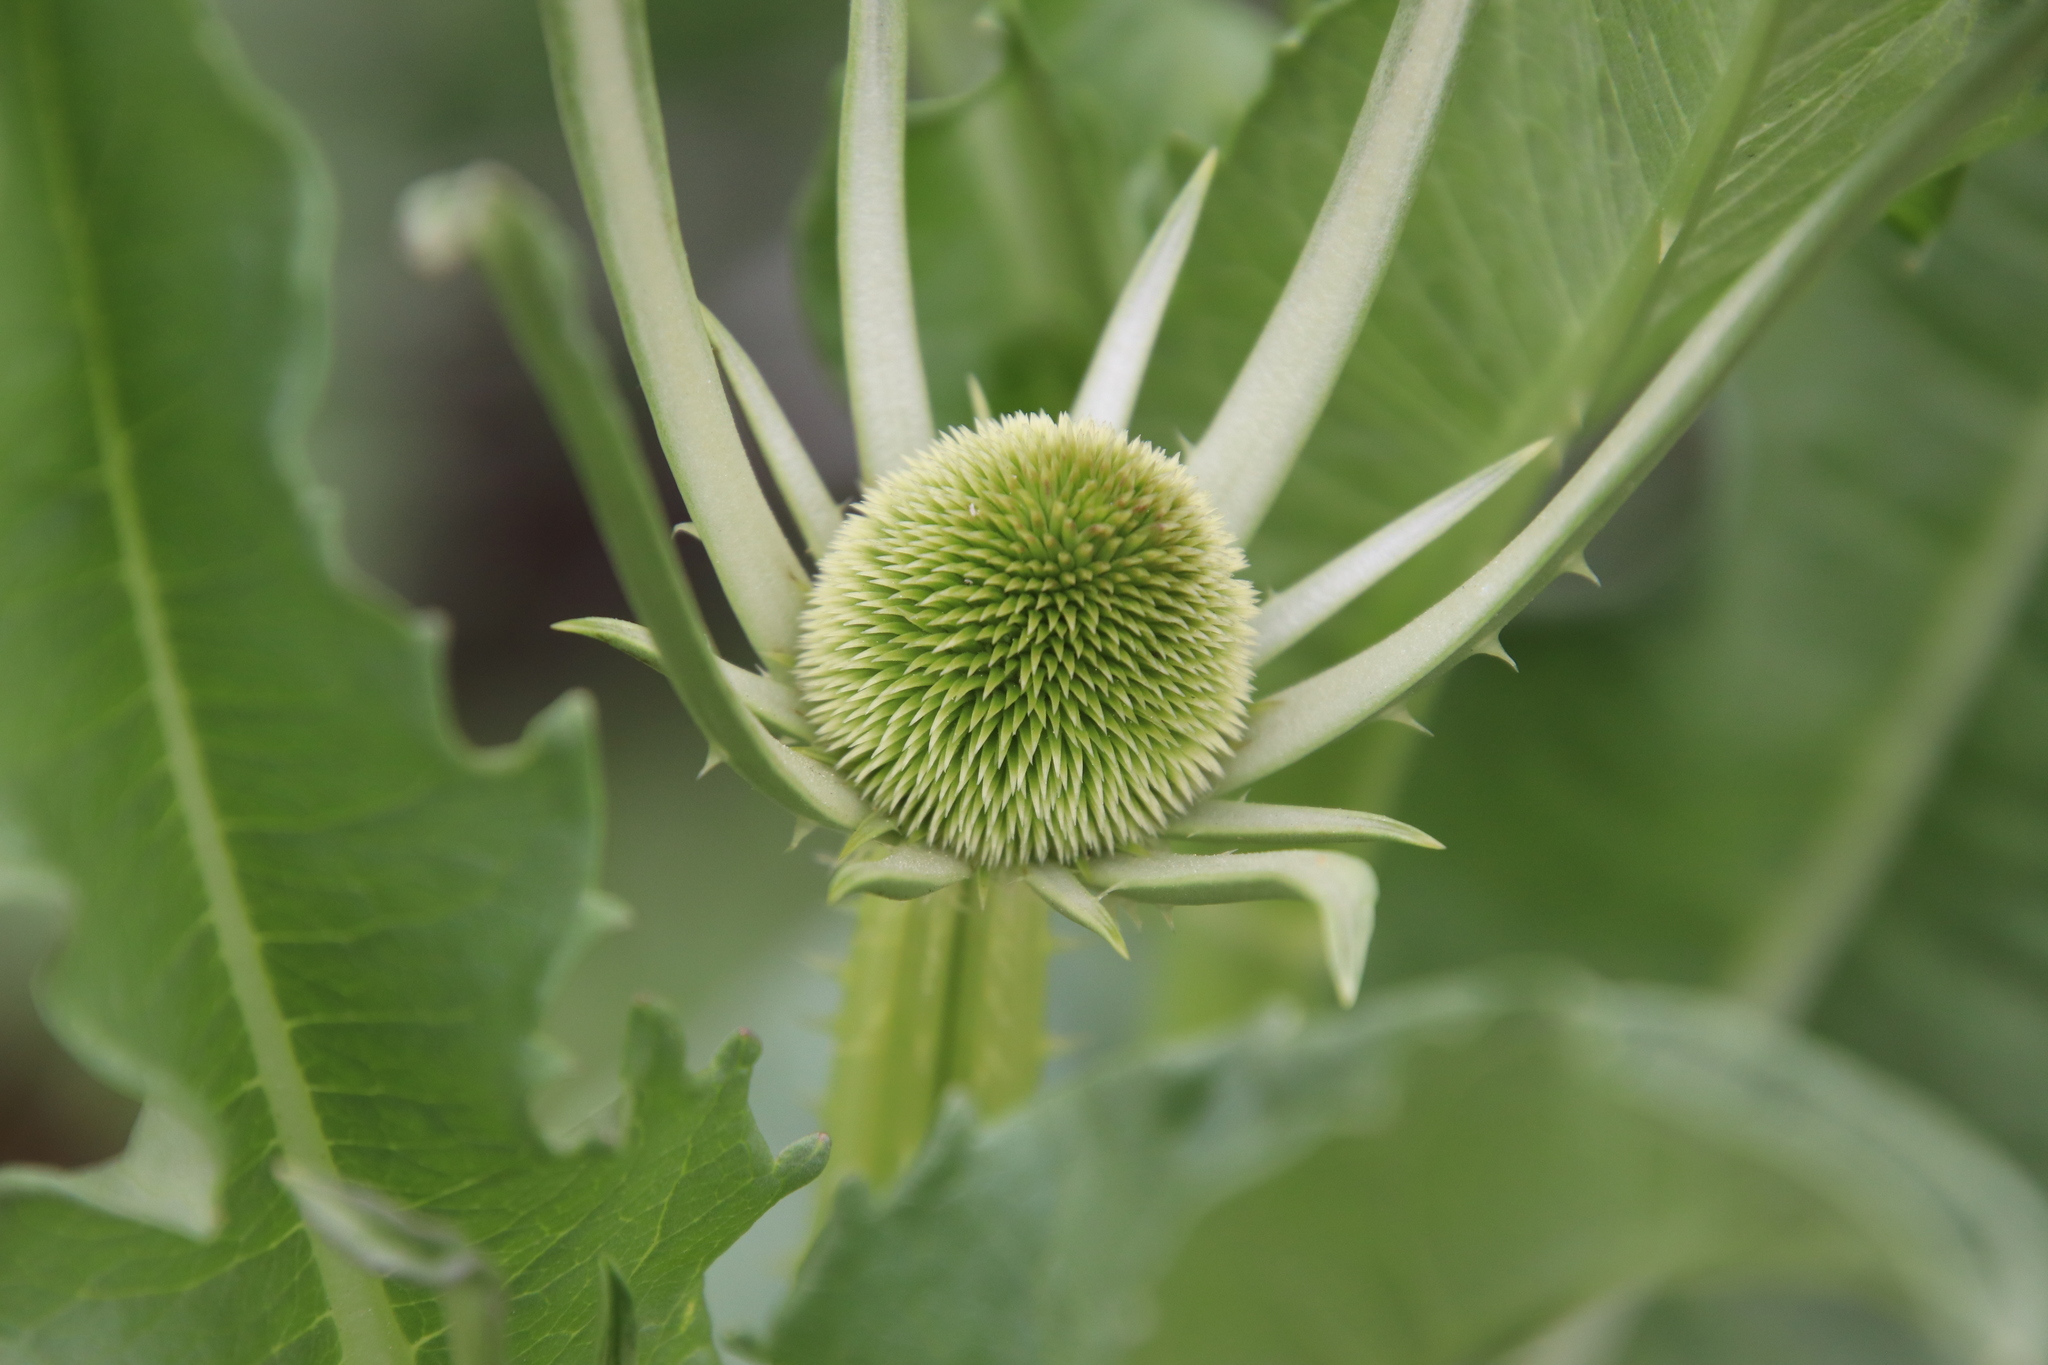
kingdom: Plantae
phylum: Tracheophyta
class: Magnoliopsida
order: Dipsacales
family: Caprifoliaceae
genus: Dipsacus
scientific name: Dipsacus sativus
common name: Fuller's teasel
